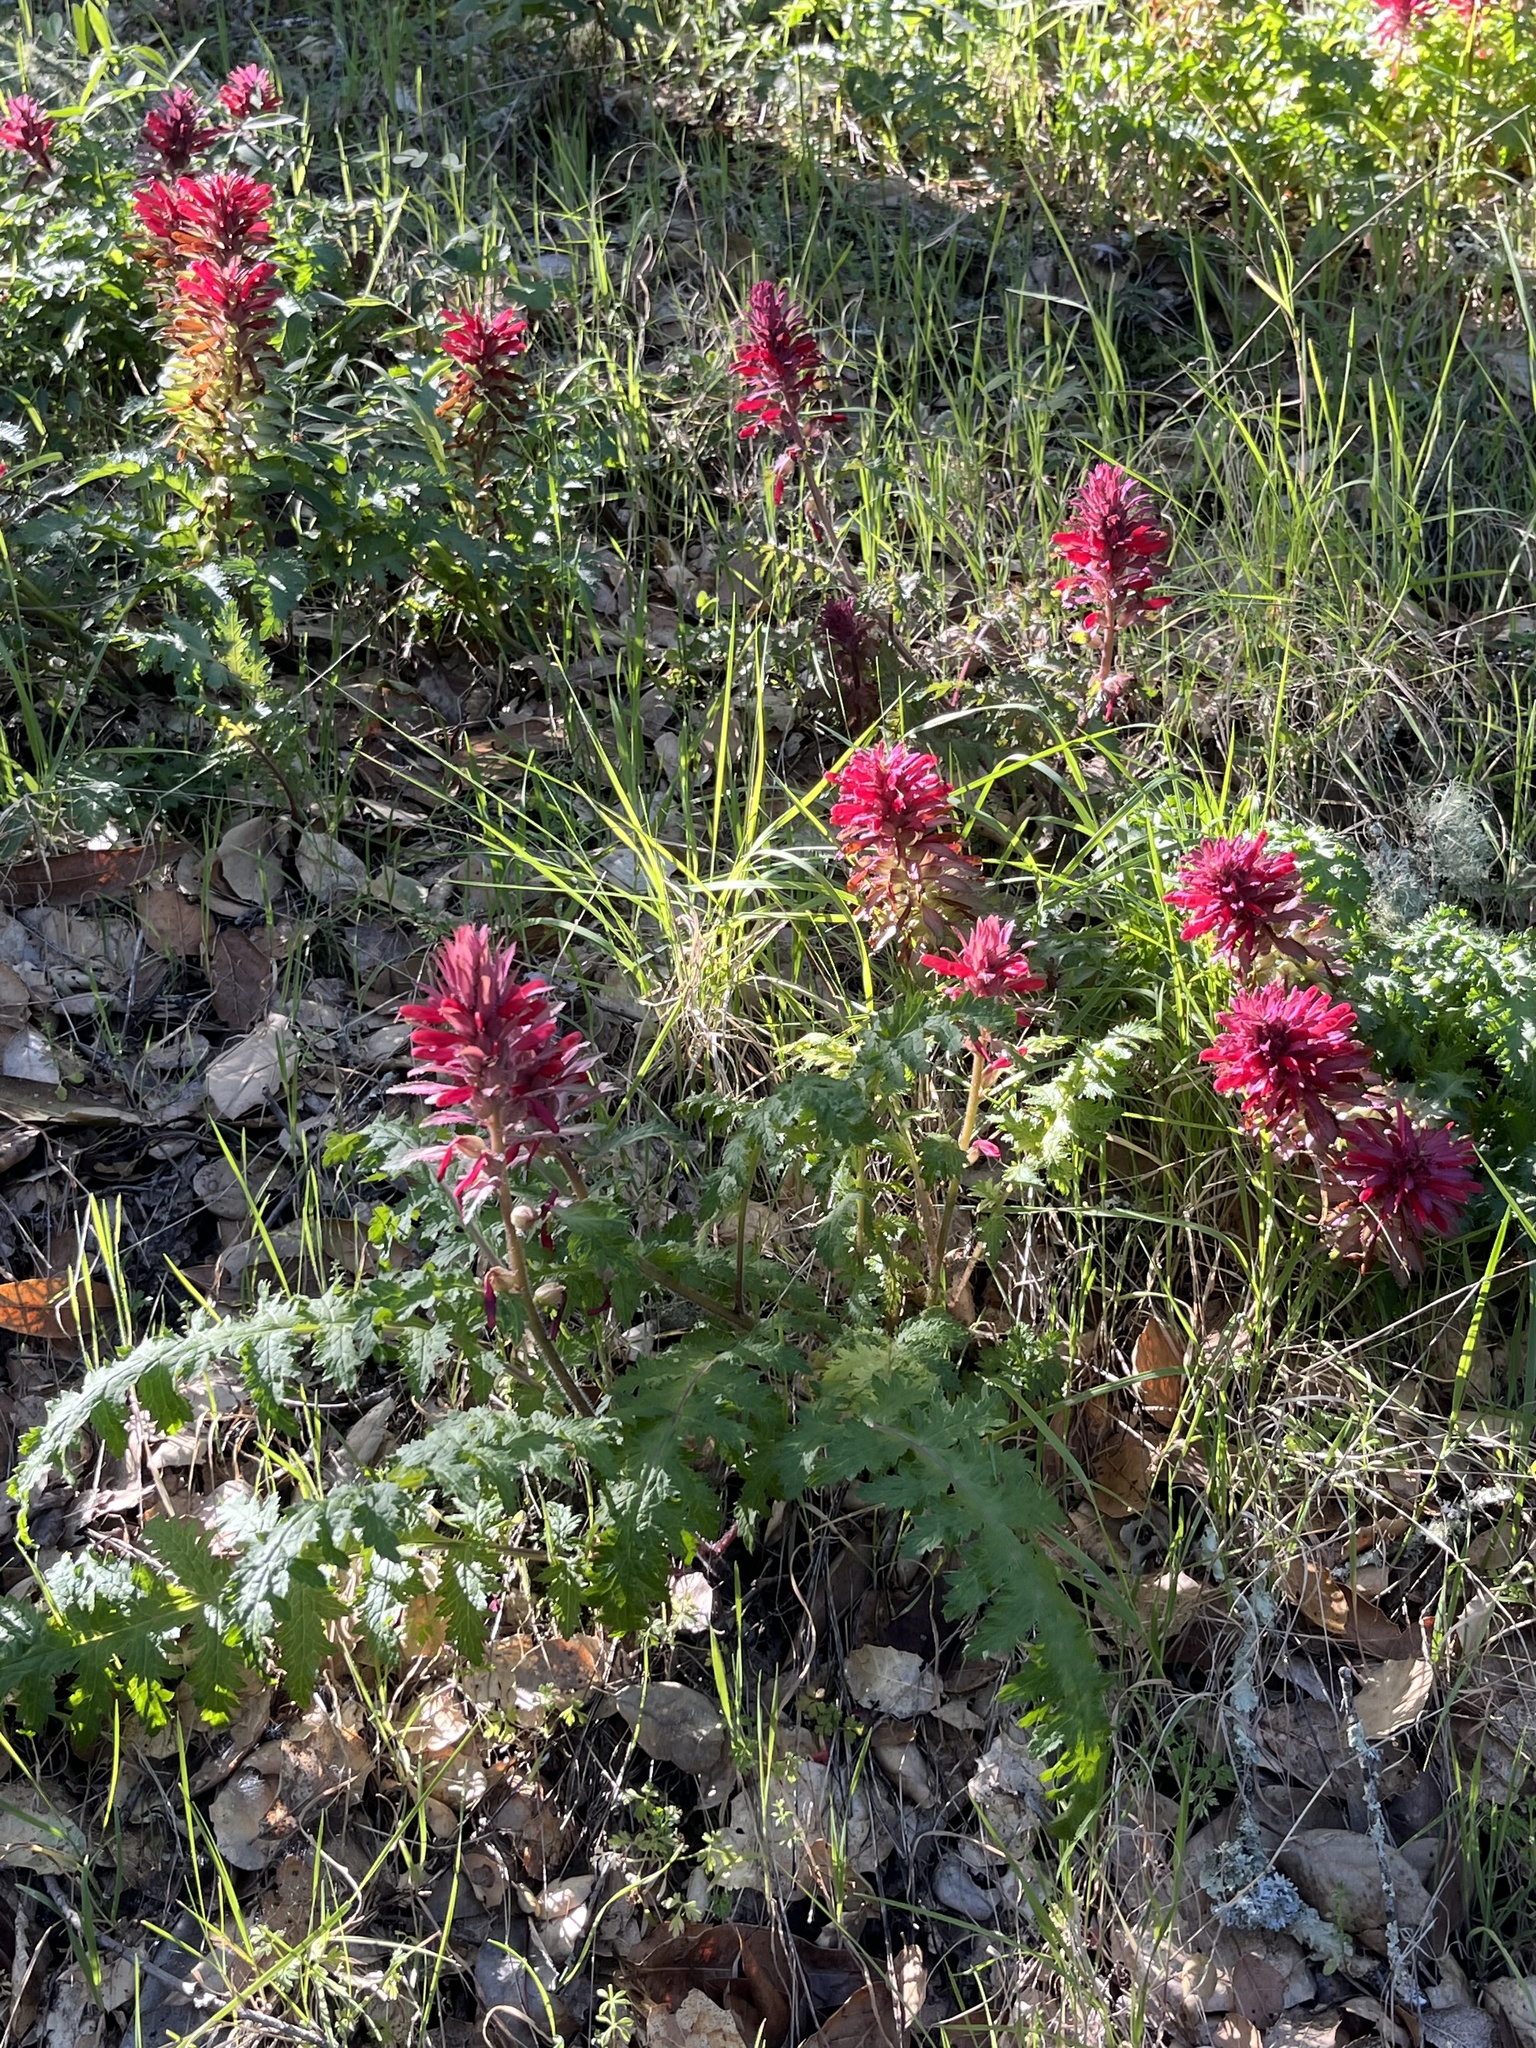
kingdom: Plantae
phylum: Tracheophyta
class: Magnoliopsida
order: Lamiales
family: Orobanchaceae
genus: Pedicularis
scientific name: Pedicularis densiflora
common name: Indian warrior
